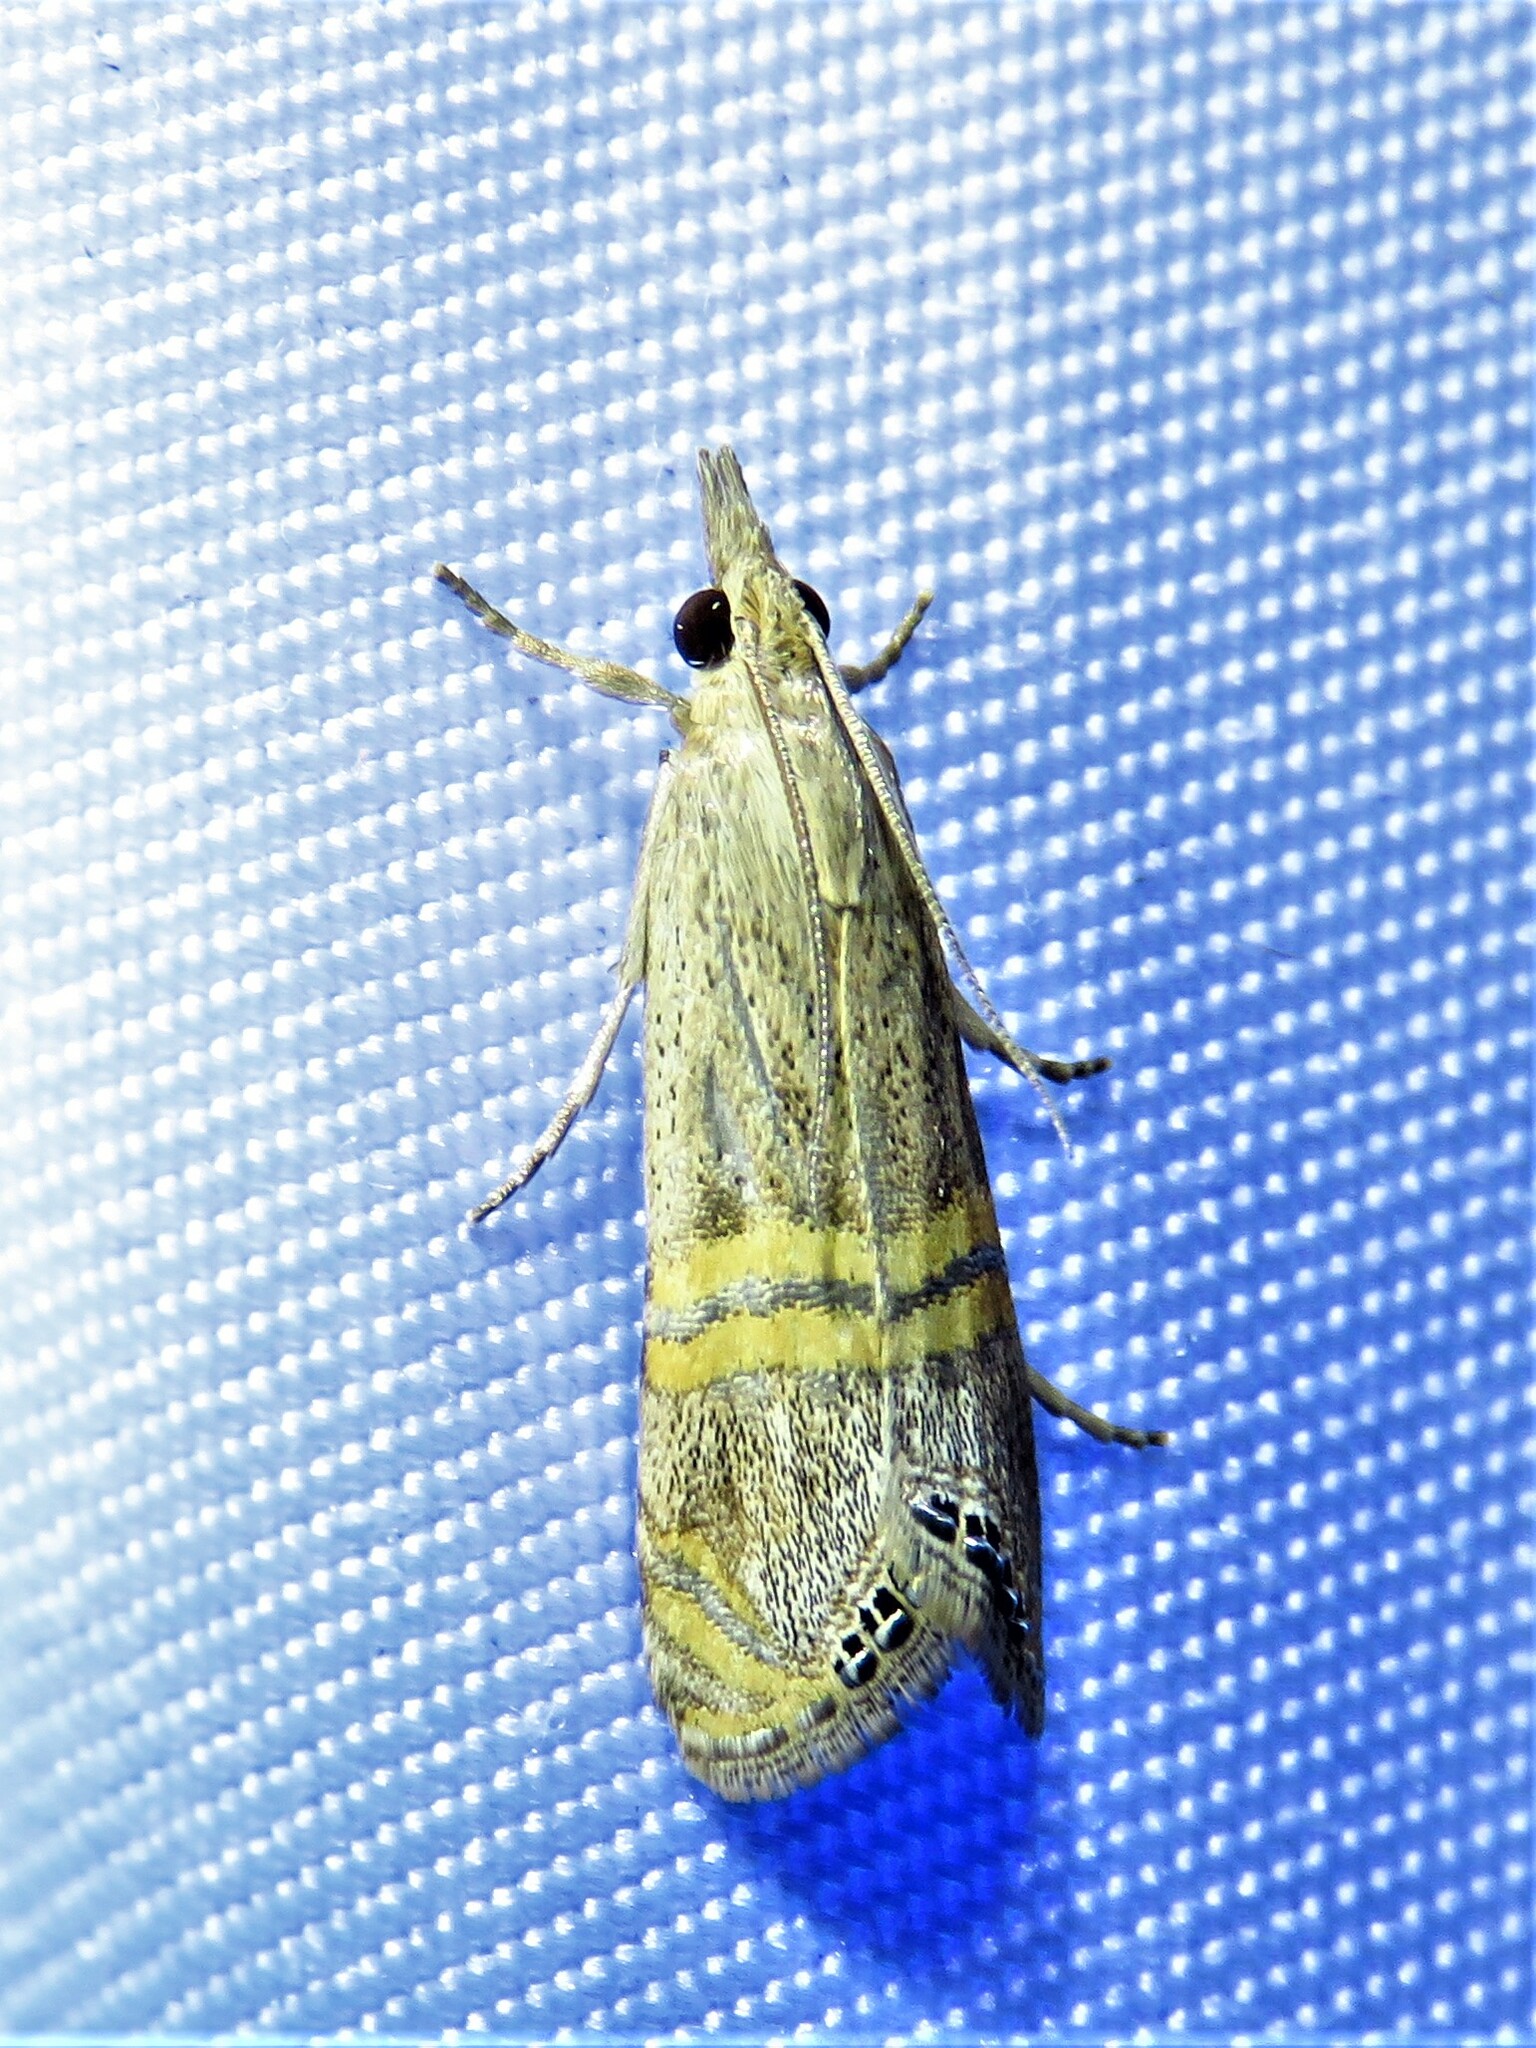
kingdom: Animalia
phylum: Arthropoda
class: Insecta
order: Lepidoptera
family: Crambidae
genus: Euchromius
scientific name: Euchromius ocellea
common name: Necklace veneer moth
